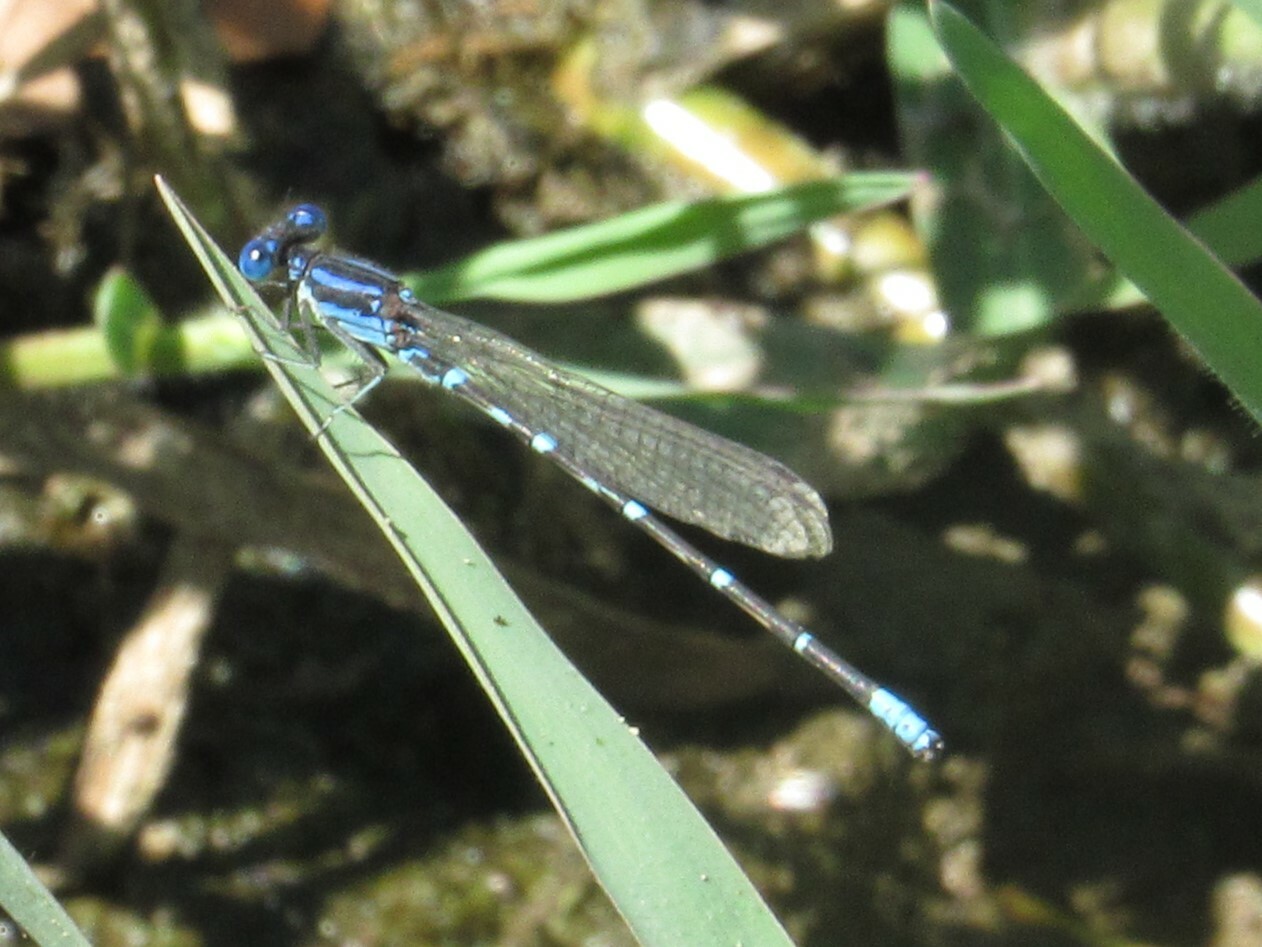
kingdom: Animalia
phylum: Arthropoda
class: Insecta
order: Odonata
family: Coenagrionidae
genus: Argia
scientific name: Argia sedula
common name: Blue-ringed dancer
